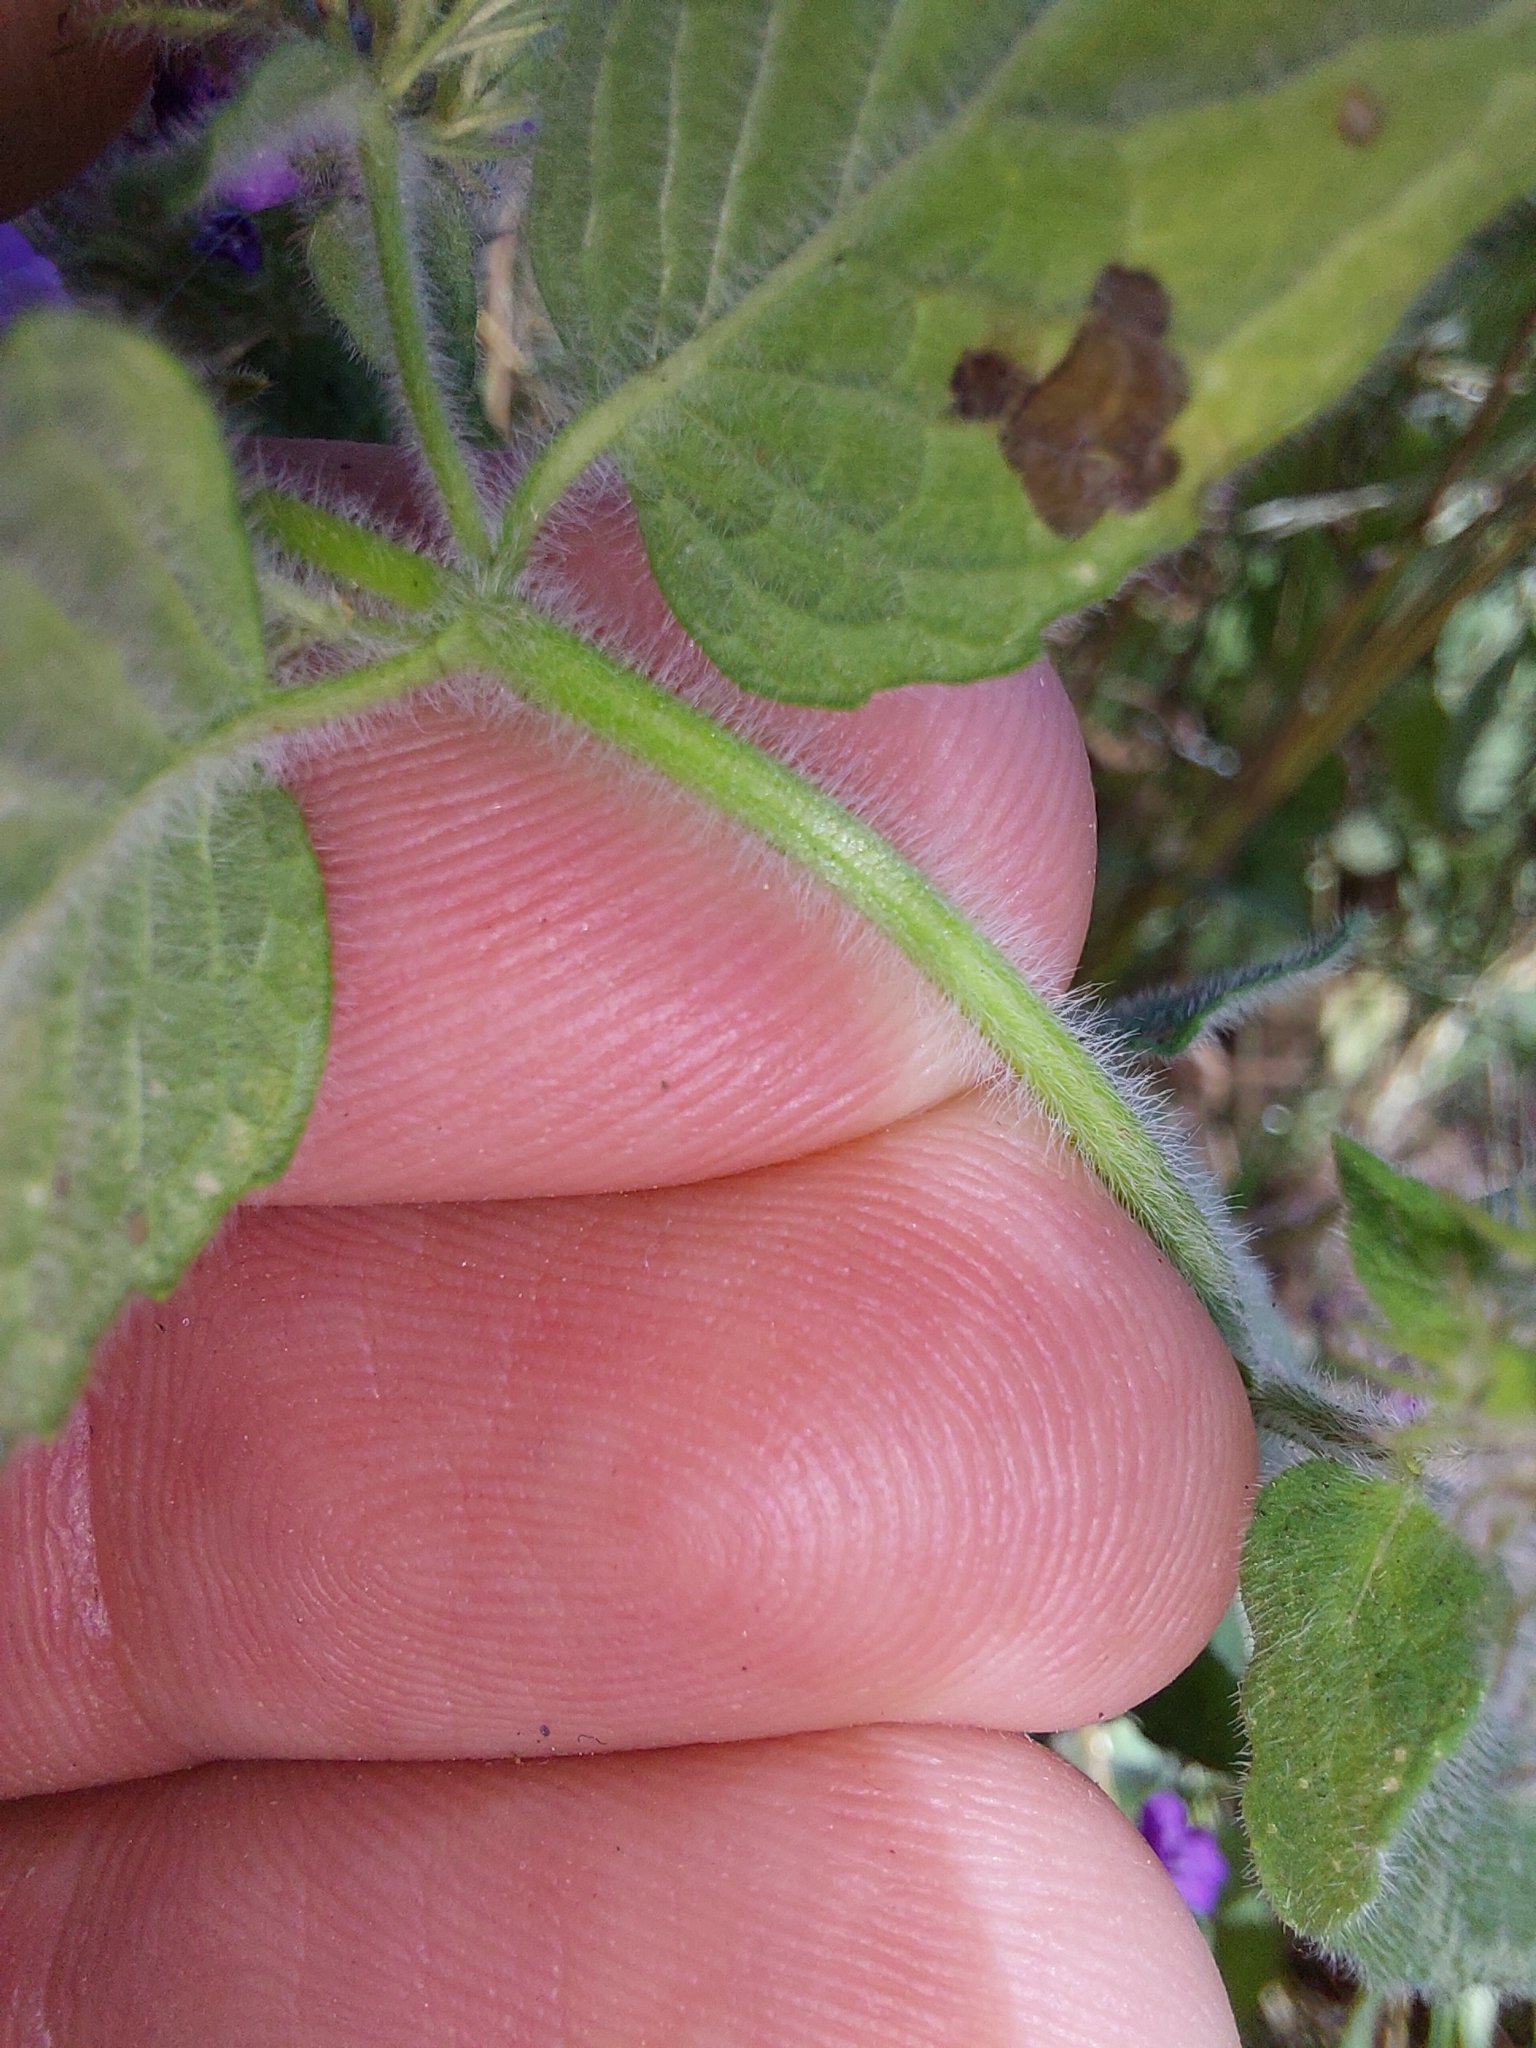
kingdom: Plantae
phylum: Tracheophyta
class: Magnoliopsida
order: Lamiales
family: Lamiaceae
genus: Clinopodium
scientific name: Clinopodium vulgare
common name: Wild basil
